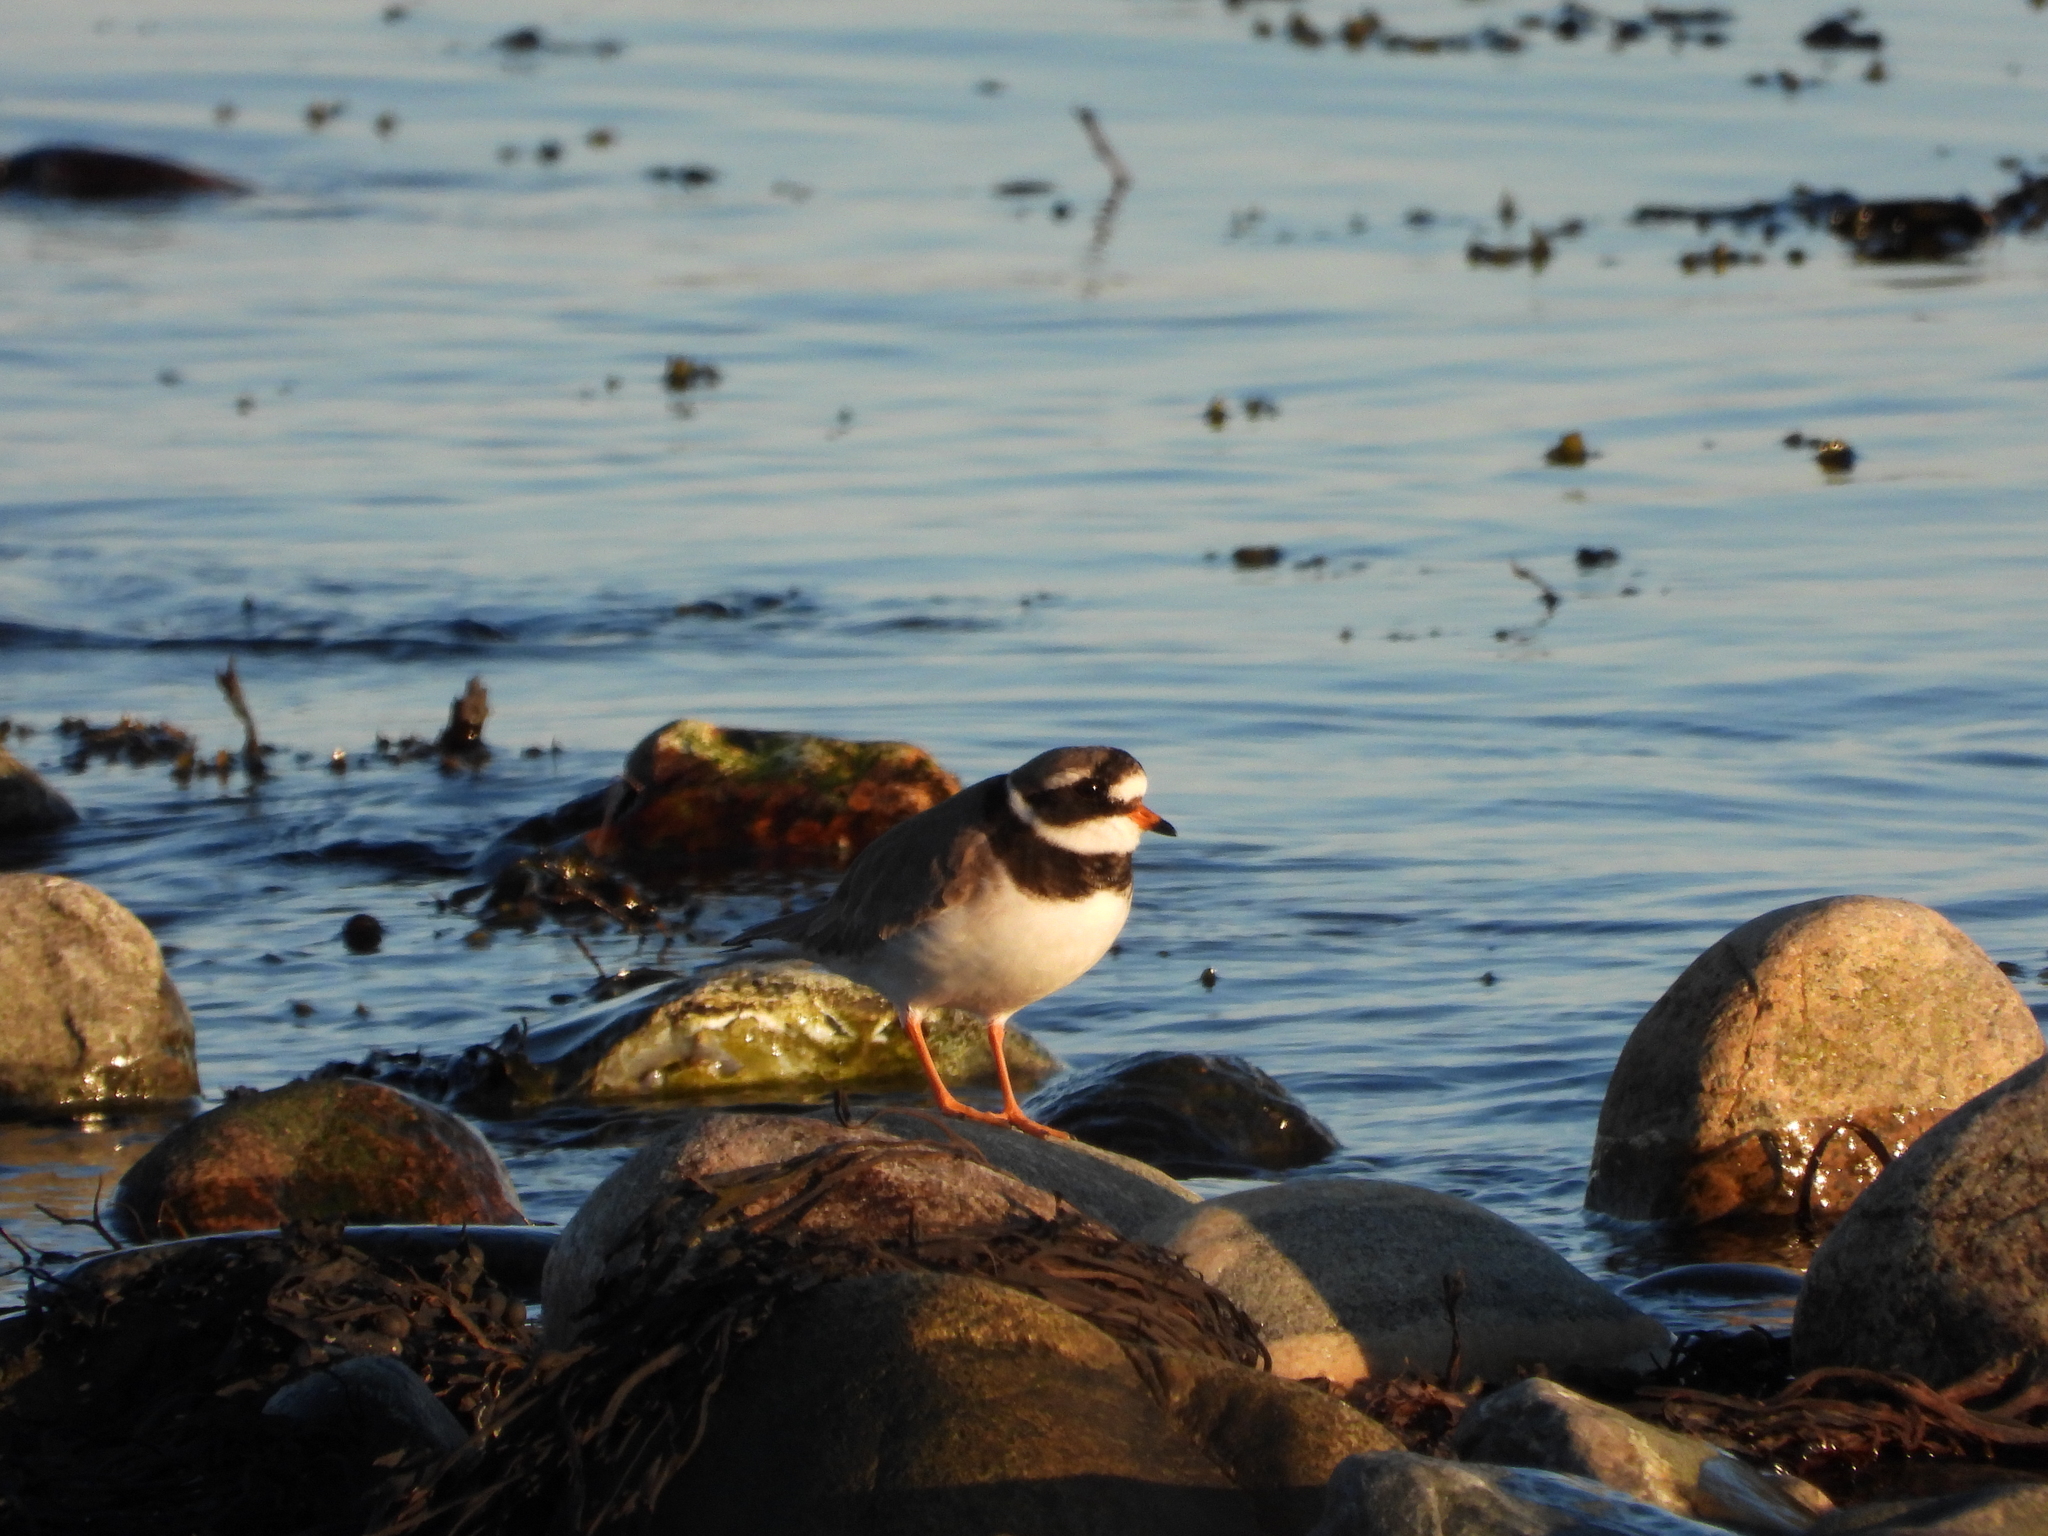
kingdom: Animalia
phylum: Chordata
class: Aves
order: Charadriiformes
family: Charadriidae
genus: Charadrius
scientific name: Charadrius hiaticula
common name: Common ringed plover
